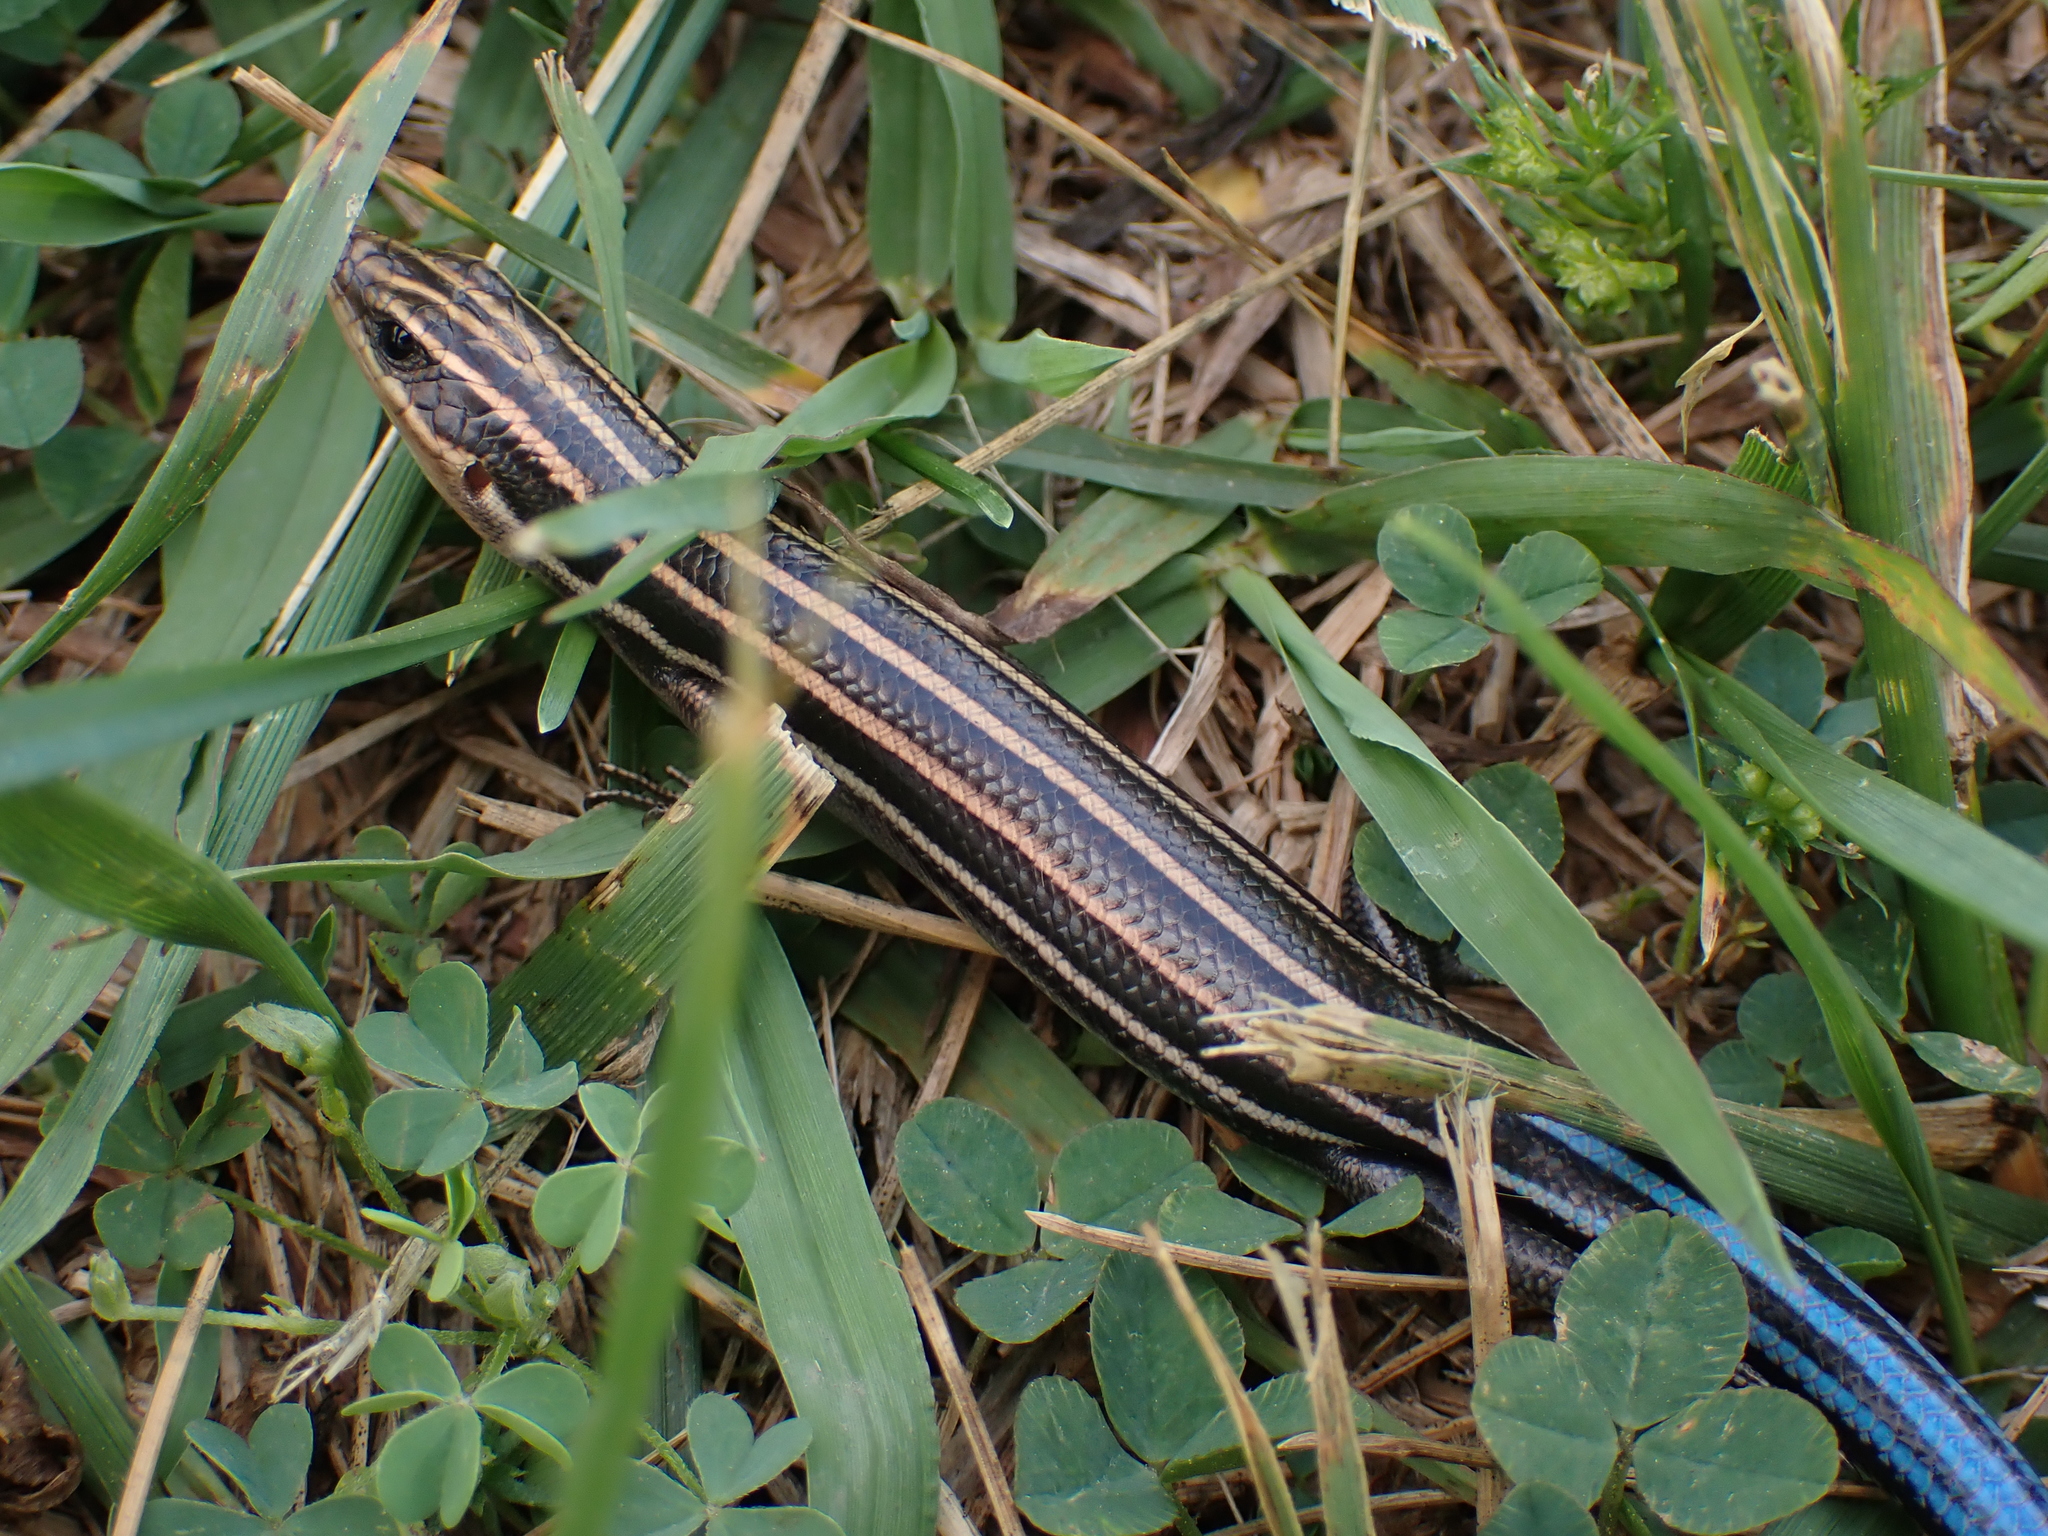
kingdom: Animalia
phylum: Chordata
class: Squamata
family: Scincidae
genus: Plestiodon
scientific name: Plestiodon fasciatus
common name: Five-lined skink
